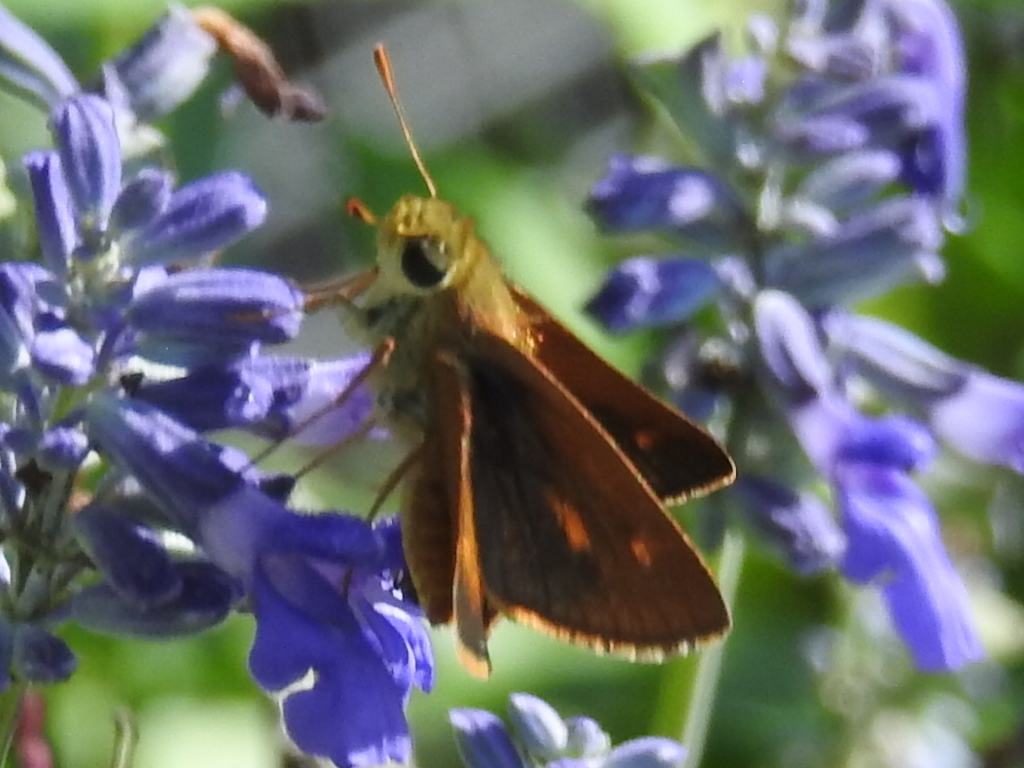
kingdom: Animalia
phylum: Arthropoda
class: Insecta
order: Lepidoptera
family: Hesperiidae
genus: Polites
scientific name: Polites otho
